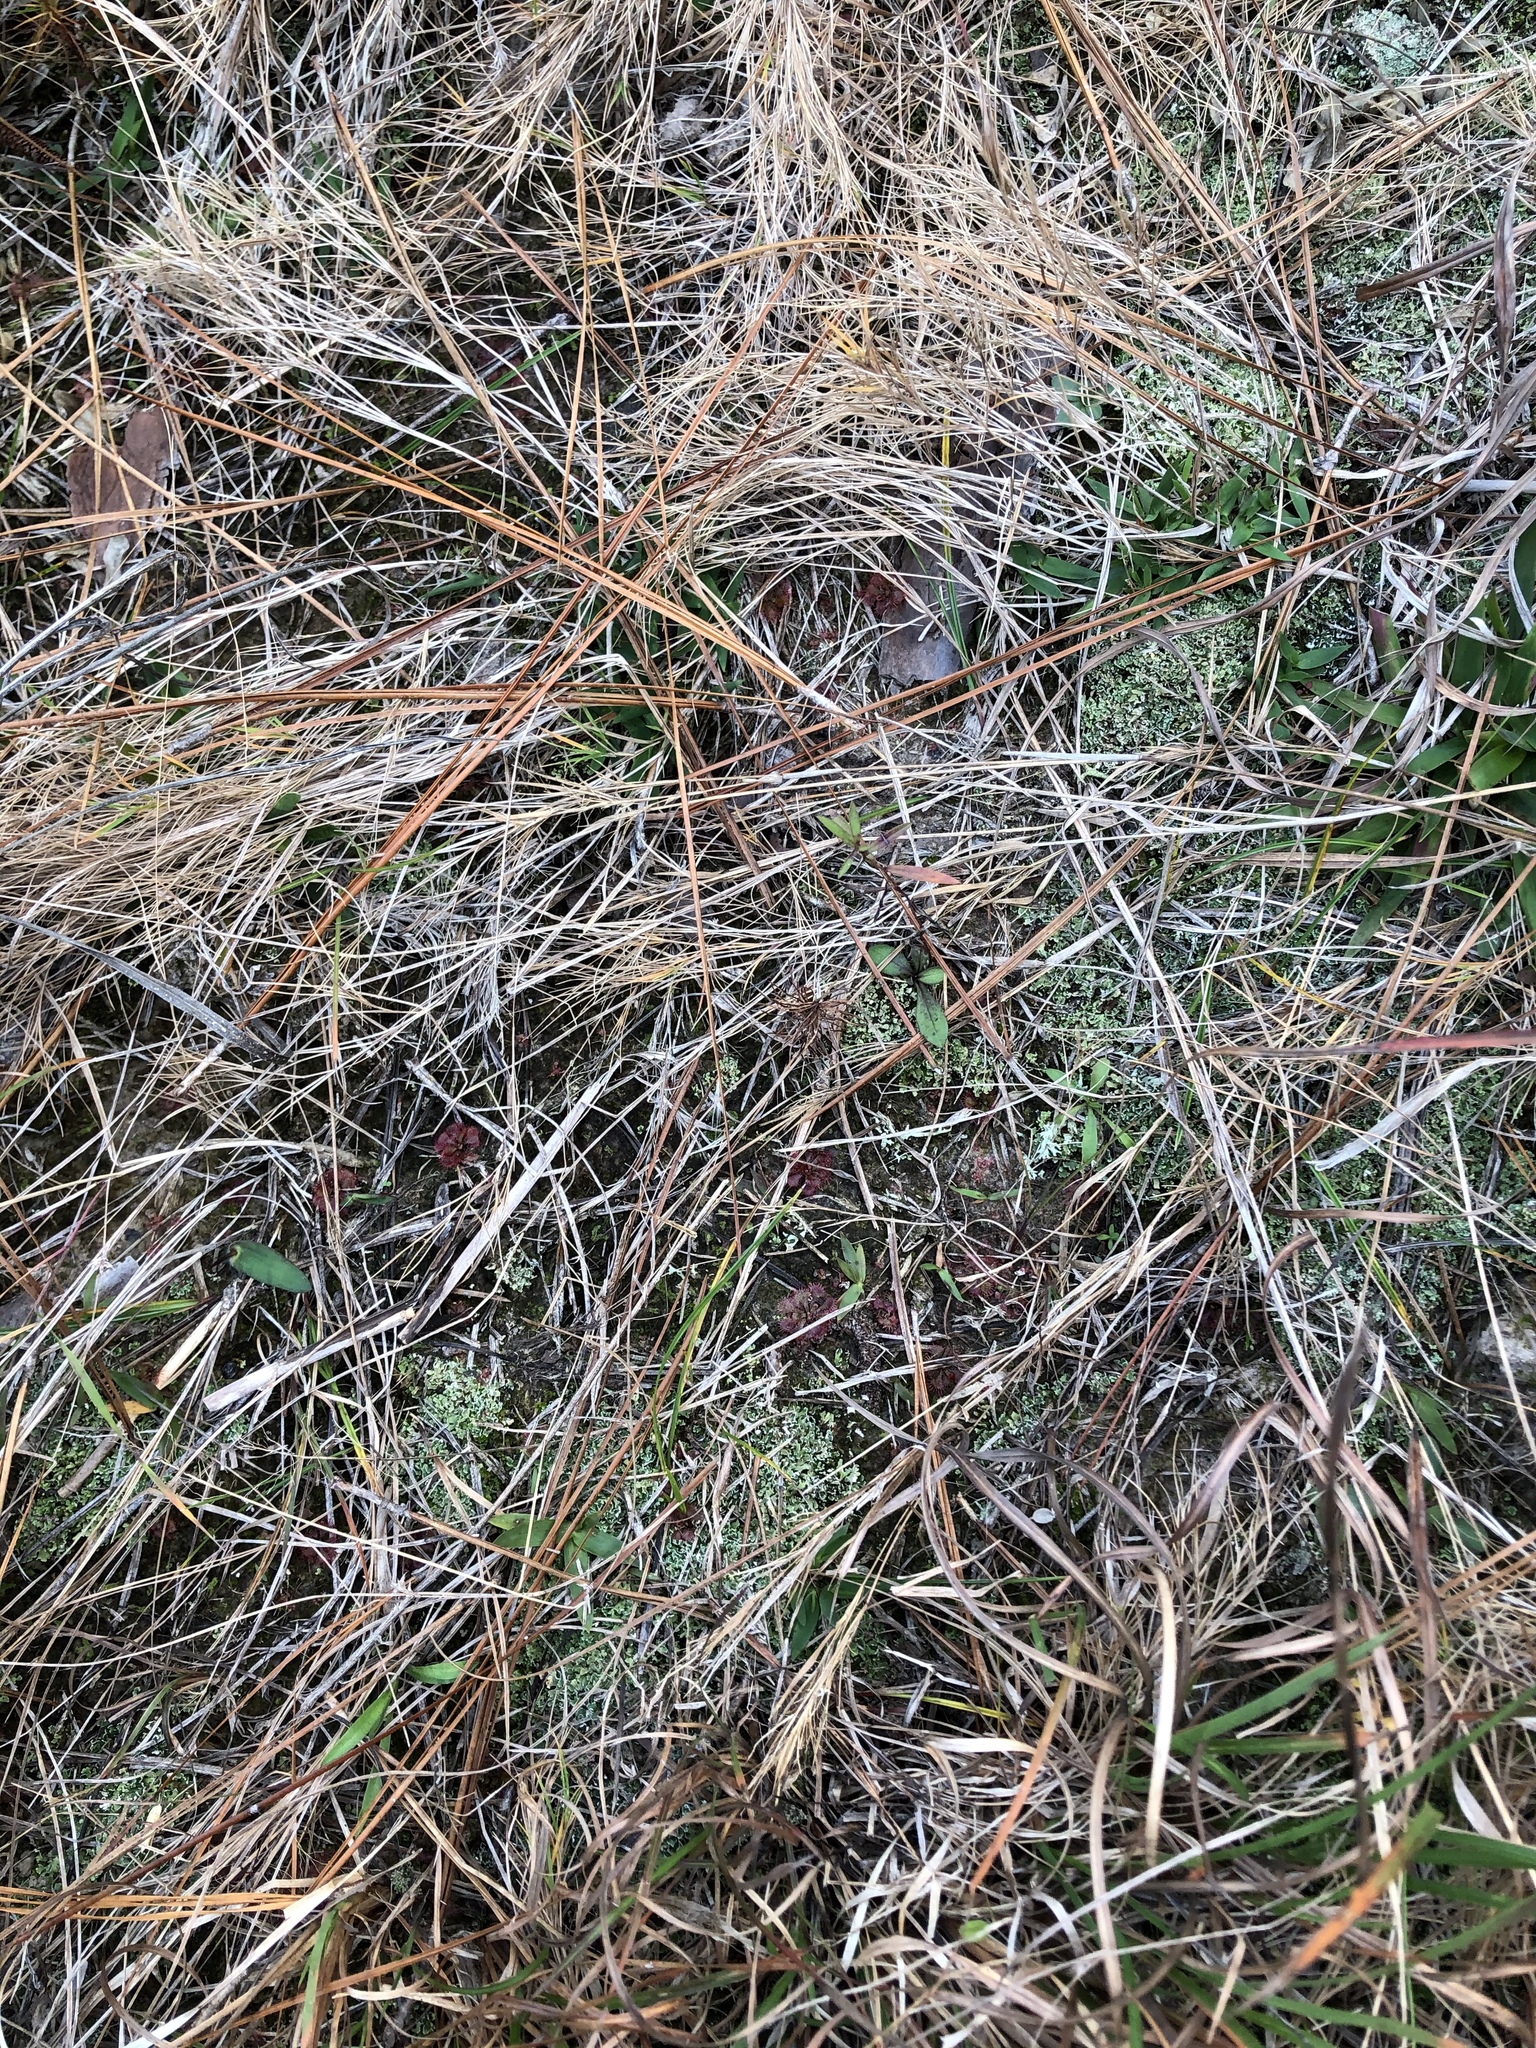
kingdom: Plantae
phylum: Tracheophyta
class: Magnoliopsida
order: Caryophyllales
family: Droseraceae
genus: Drosera
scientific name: Drosera brevifolia
